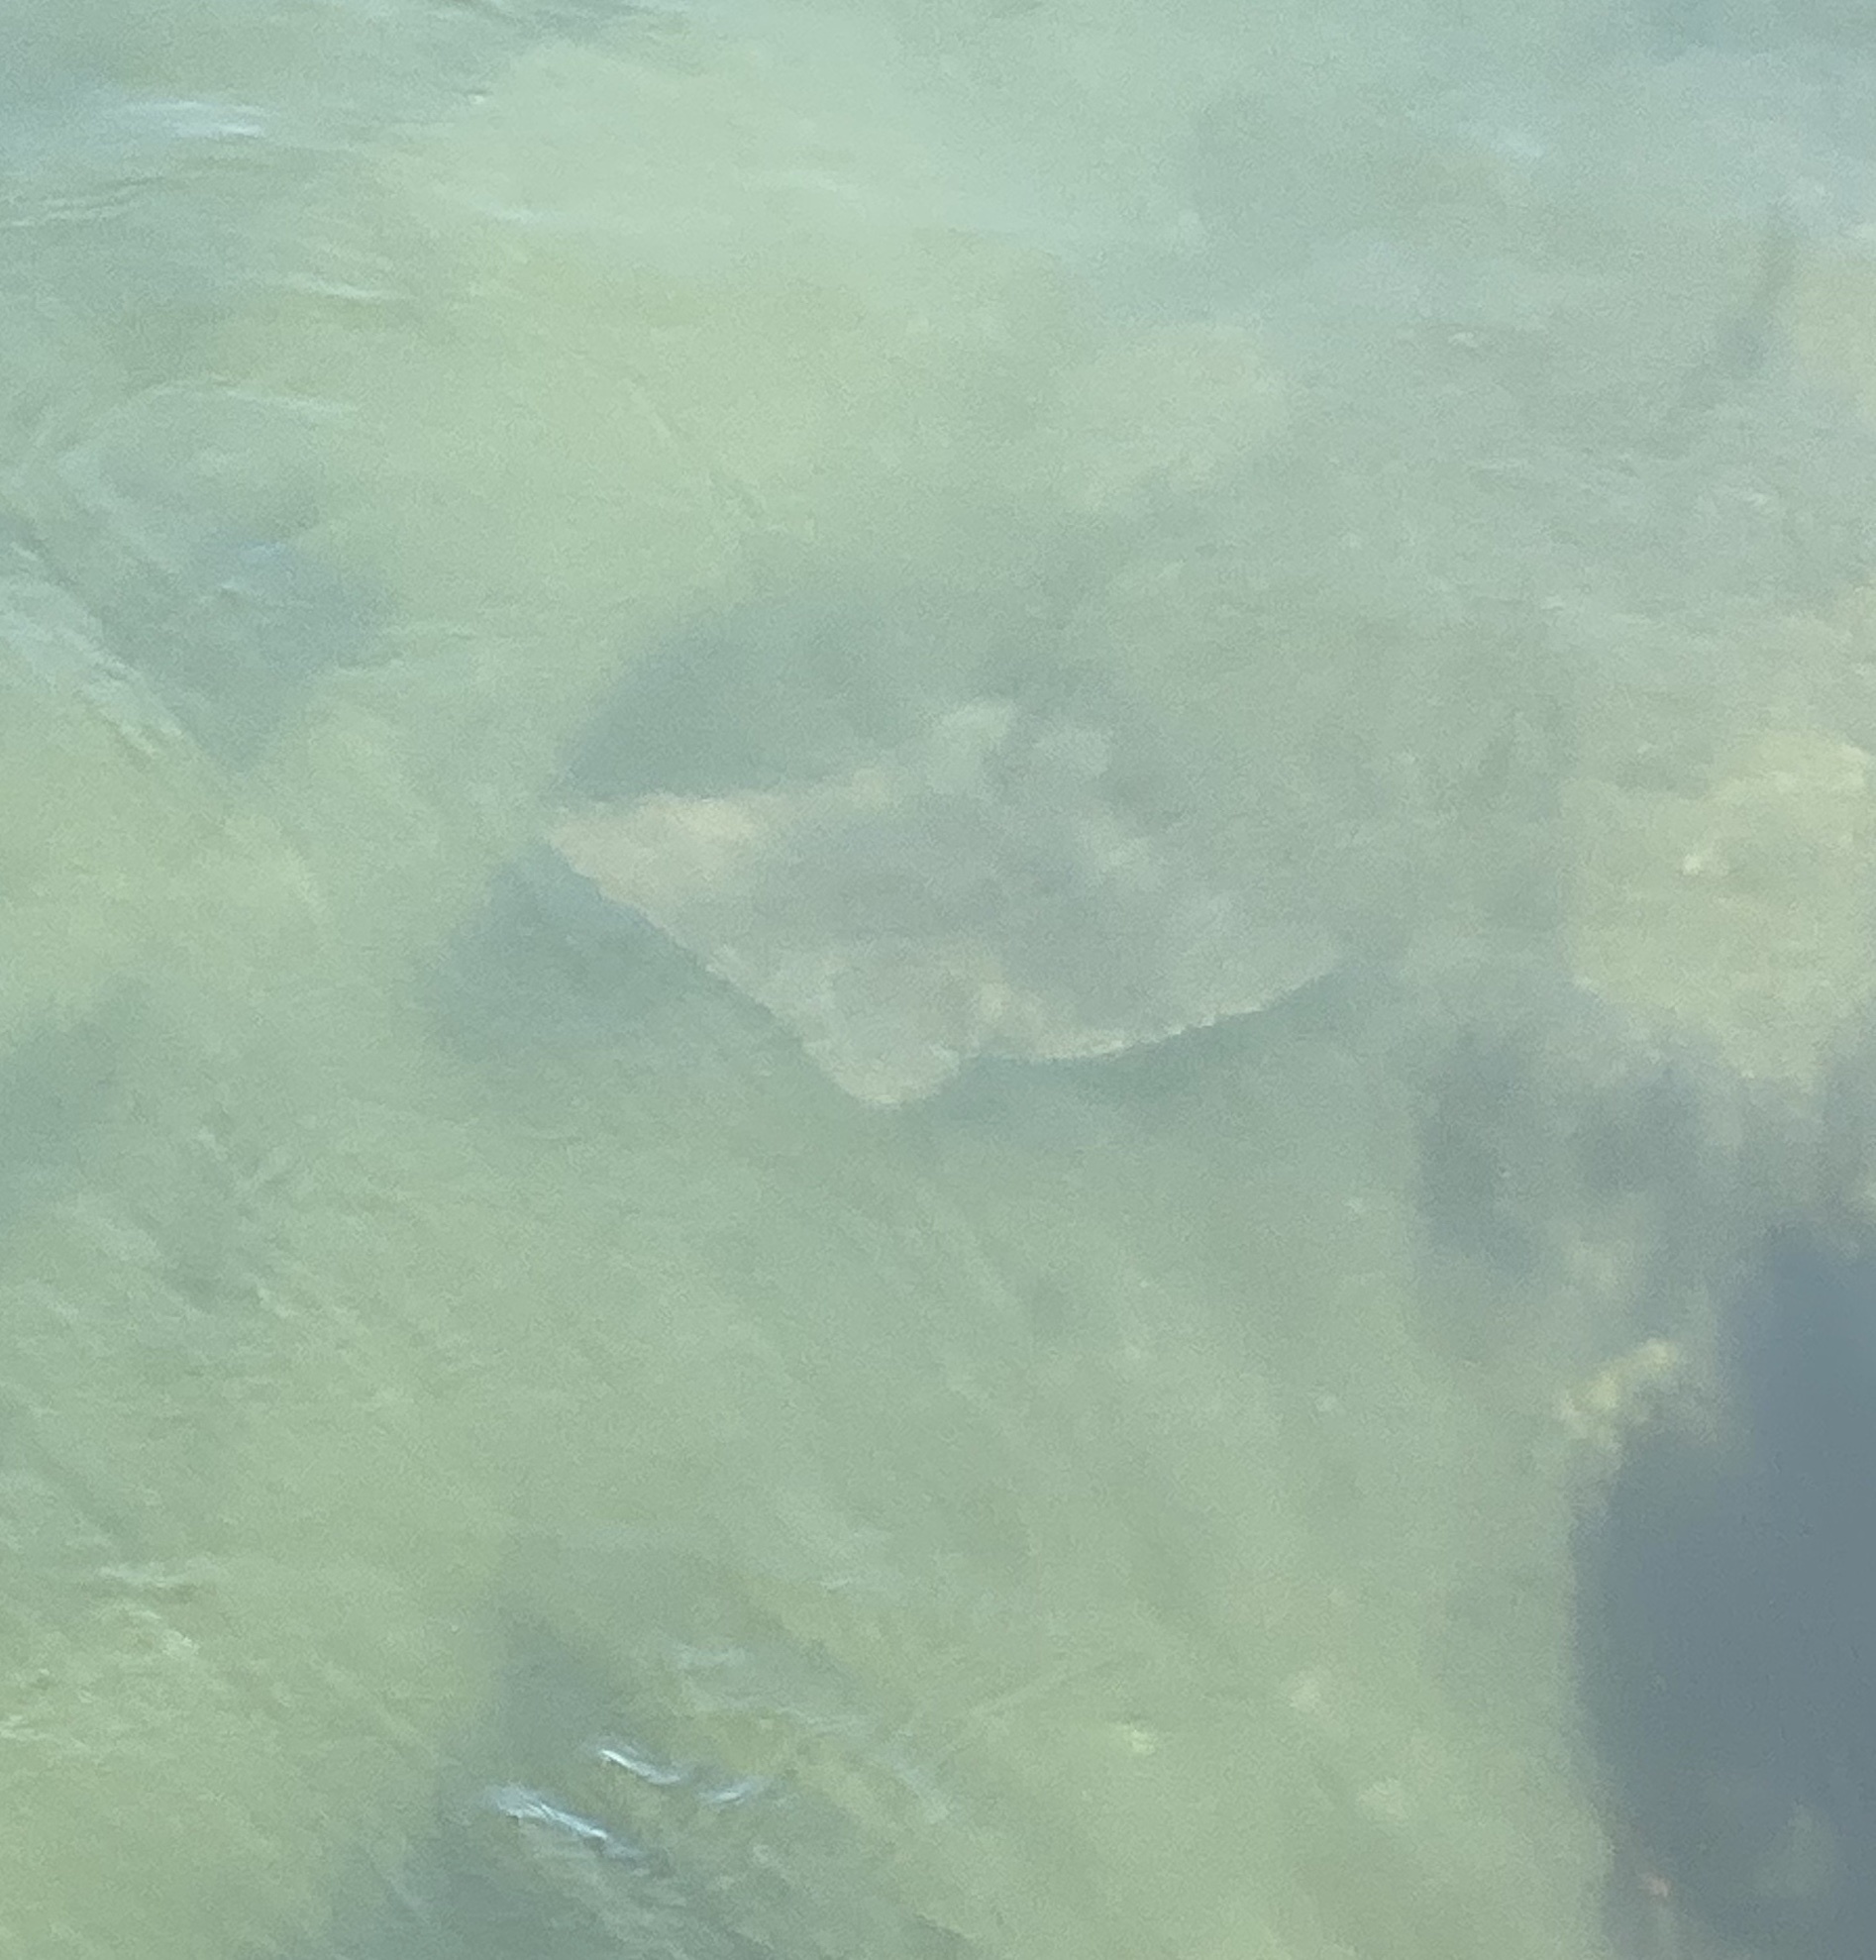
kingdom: Animalia
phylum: Chordata
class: Elasmobranchii
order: Myliobatiformes
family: Myliobatidae
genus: Myliobatis
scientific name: Myliobatis californica
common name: Bat ray
